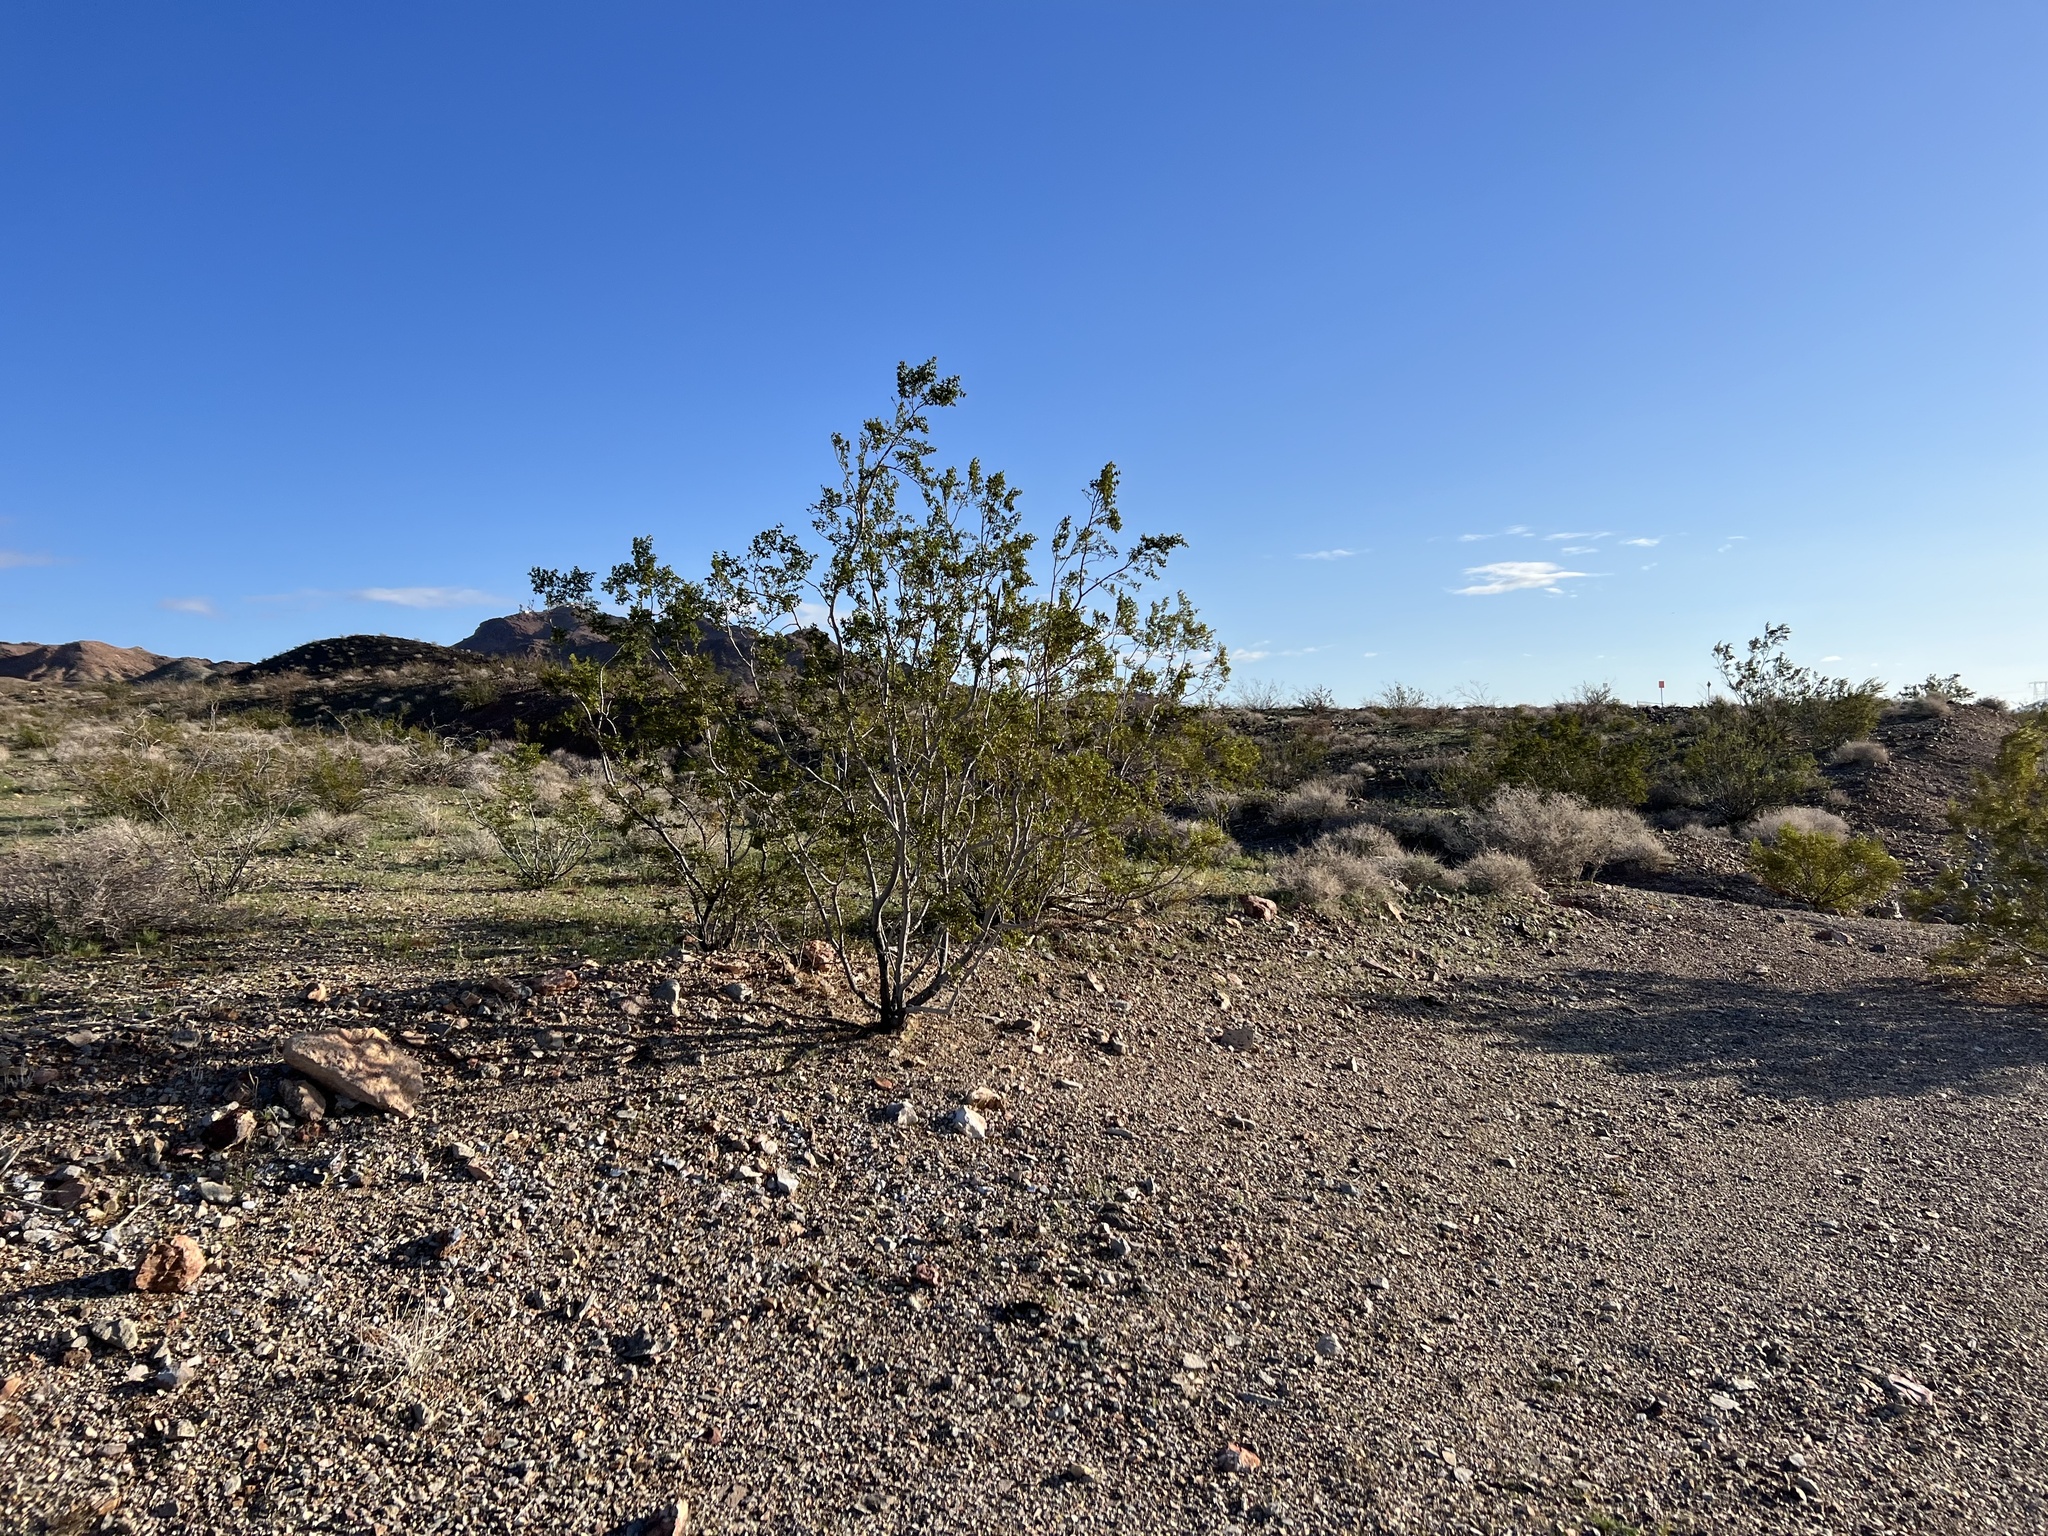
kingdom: Plantae
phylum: Tracheophyta
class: Magnoliopsida
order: Zygophyllales
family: Zygophyllaceae
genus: Larrea
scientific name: Larrea tridentata
